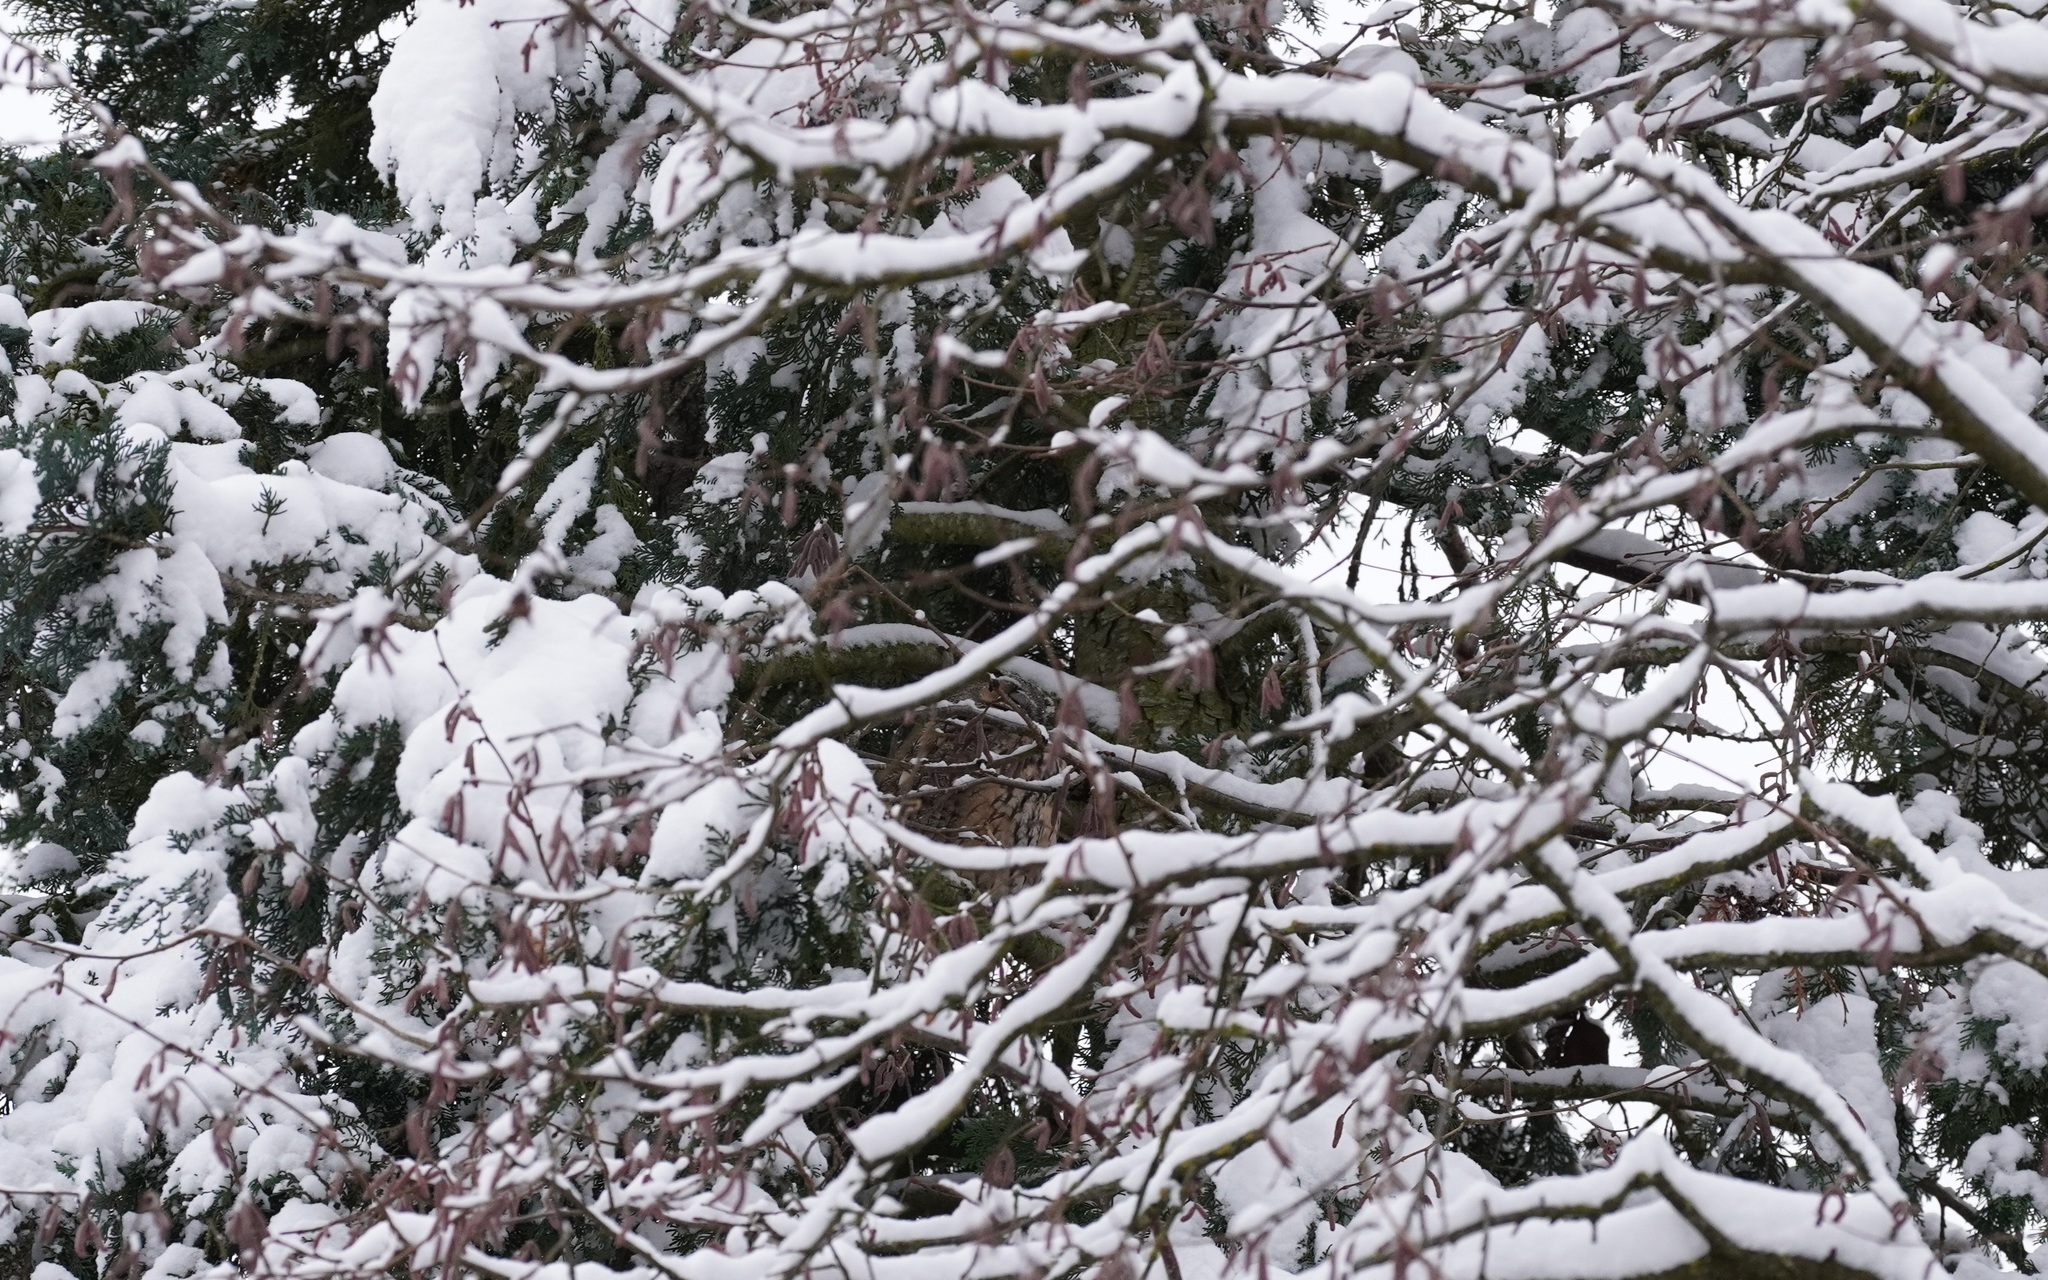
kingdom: Animalia
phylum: Chordata
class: Aves
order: Strigiformes
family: Strigidae
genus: Asio
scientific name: Asio otus
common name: Long-eared owl
